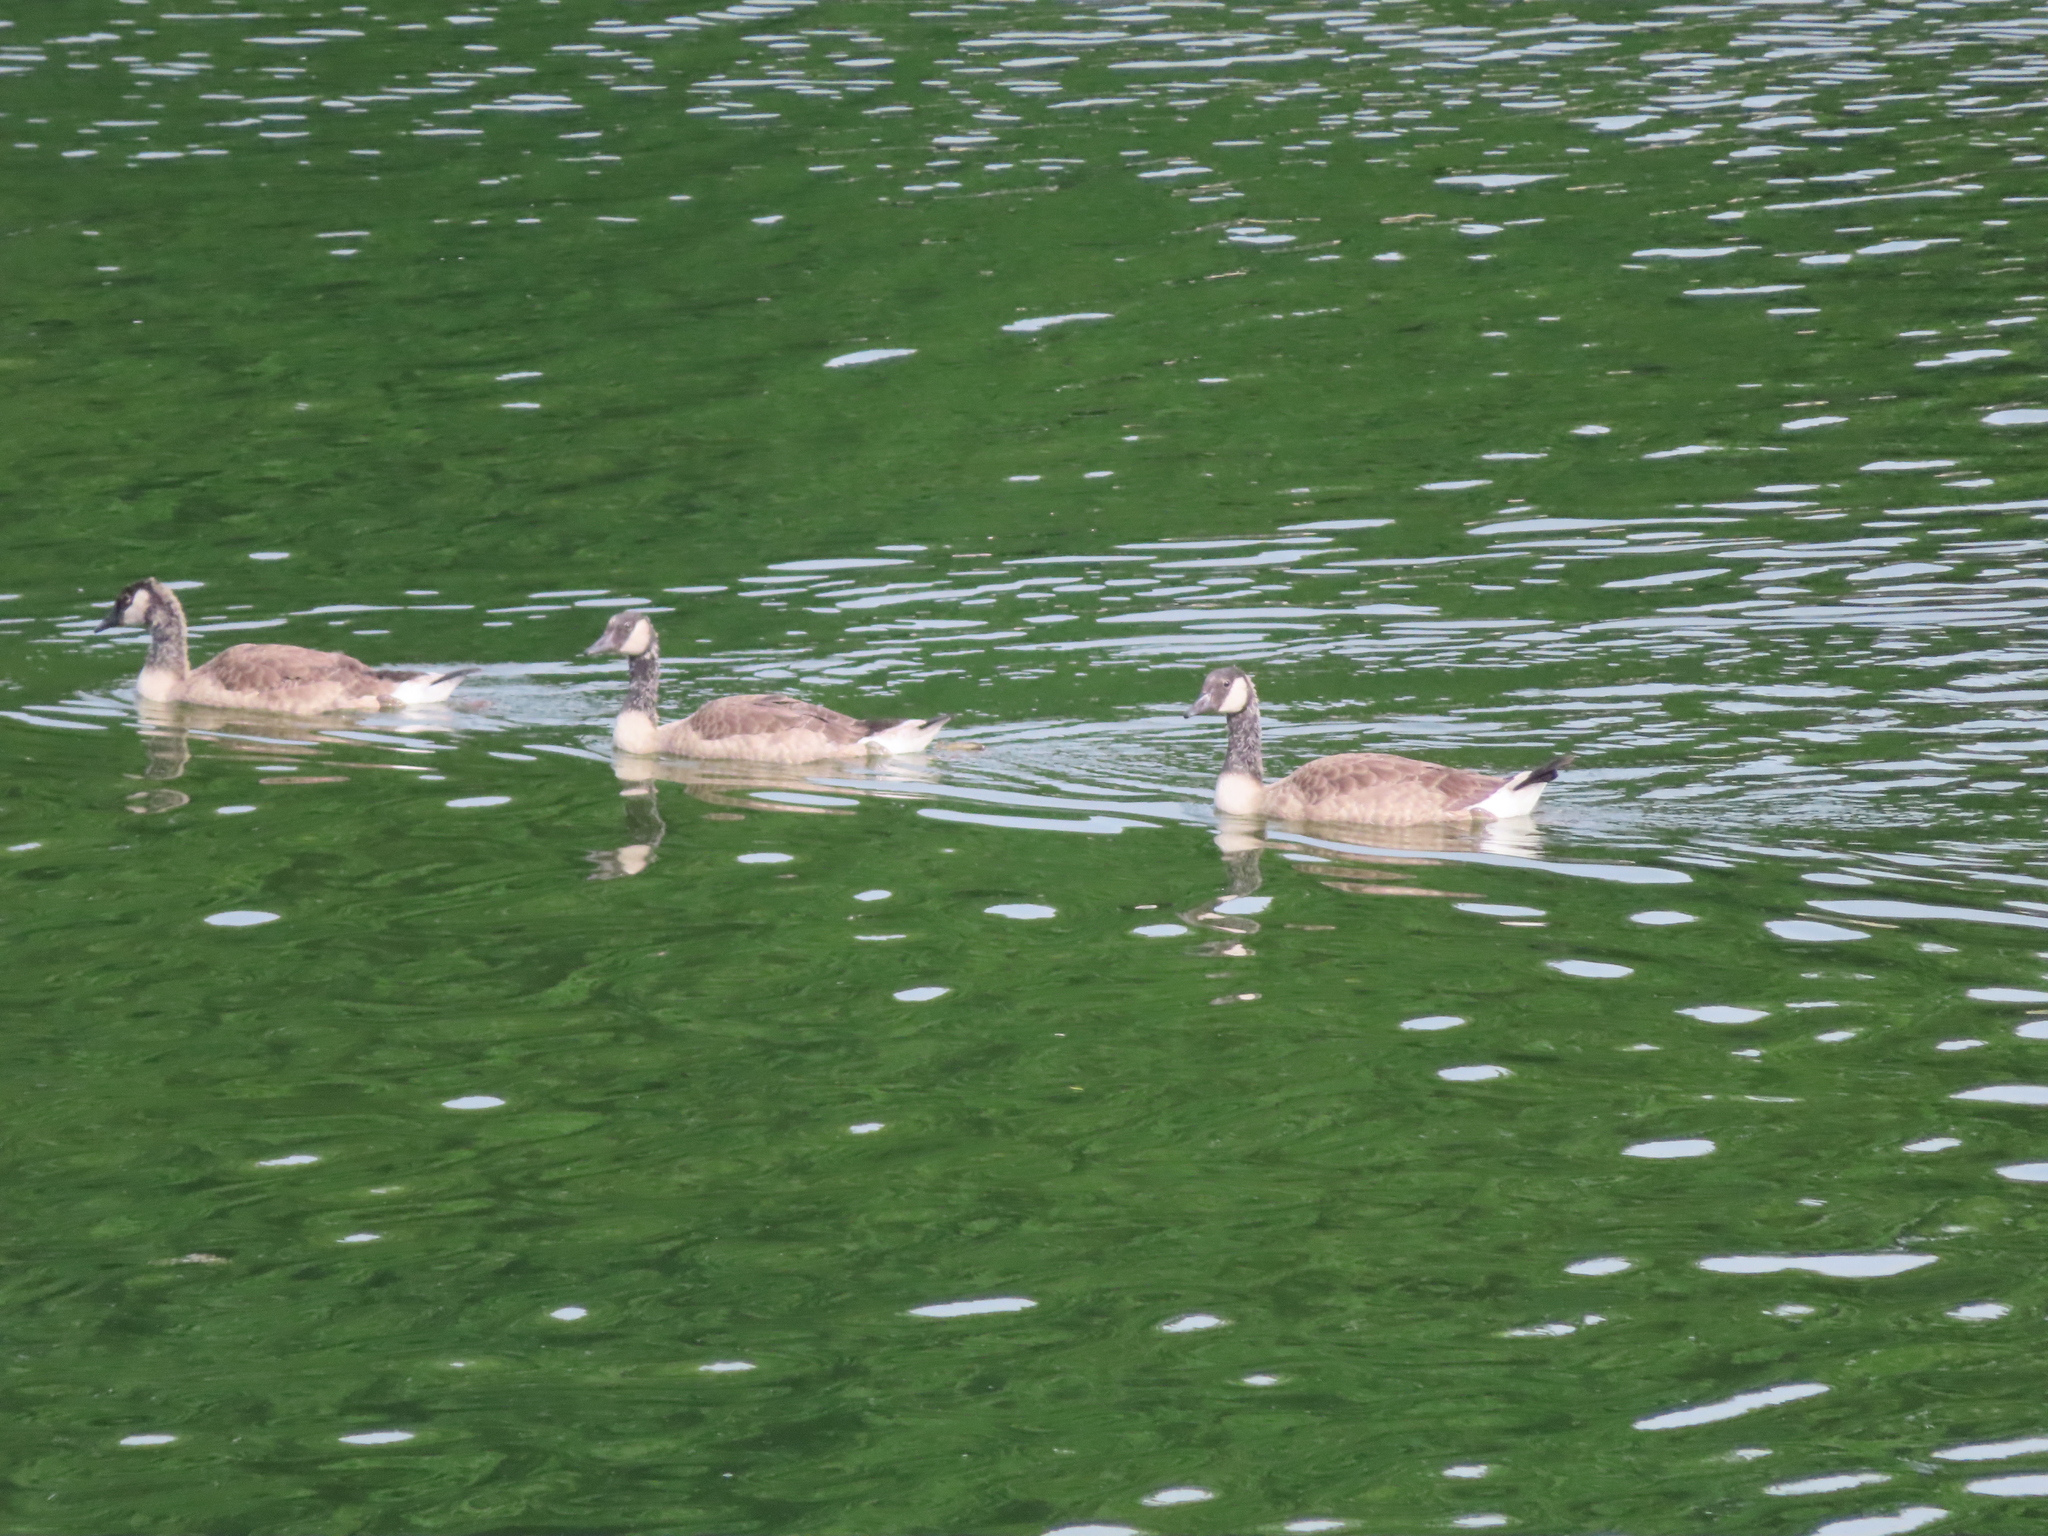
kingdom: Animalia
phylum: Chordata
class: Aves
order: Anseriformes
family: Anatidae
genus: Branta
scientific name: Branta canadensis
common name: Canada goose
